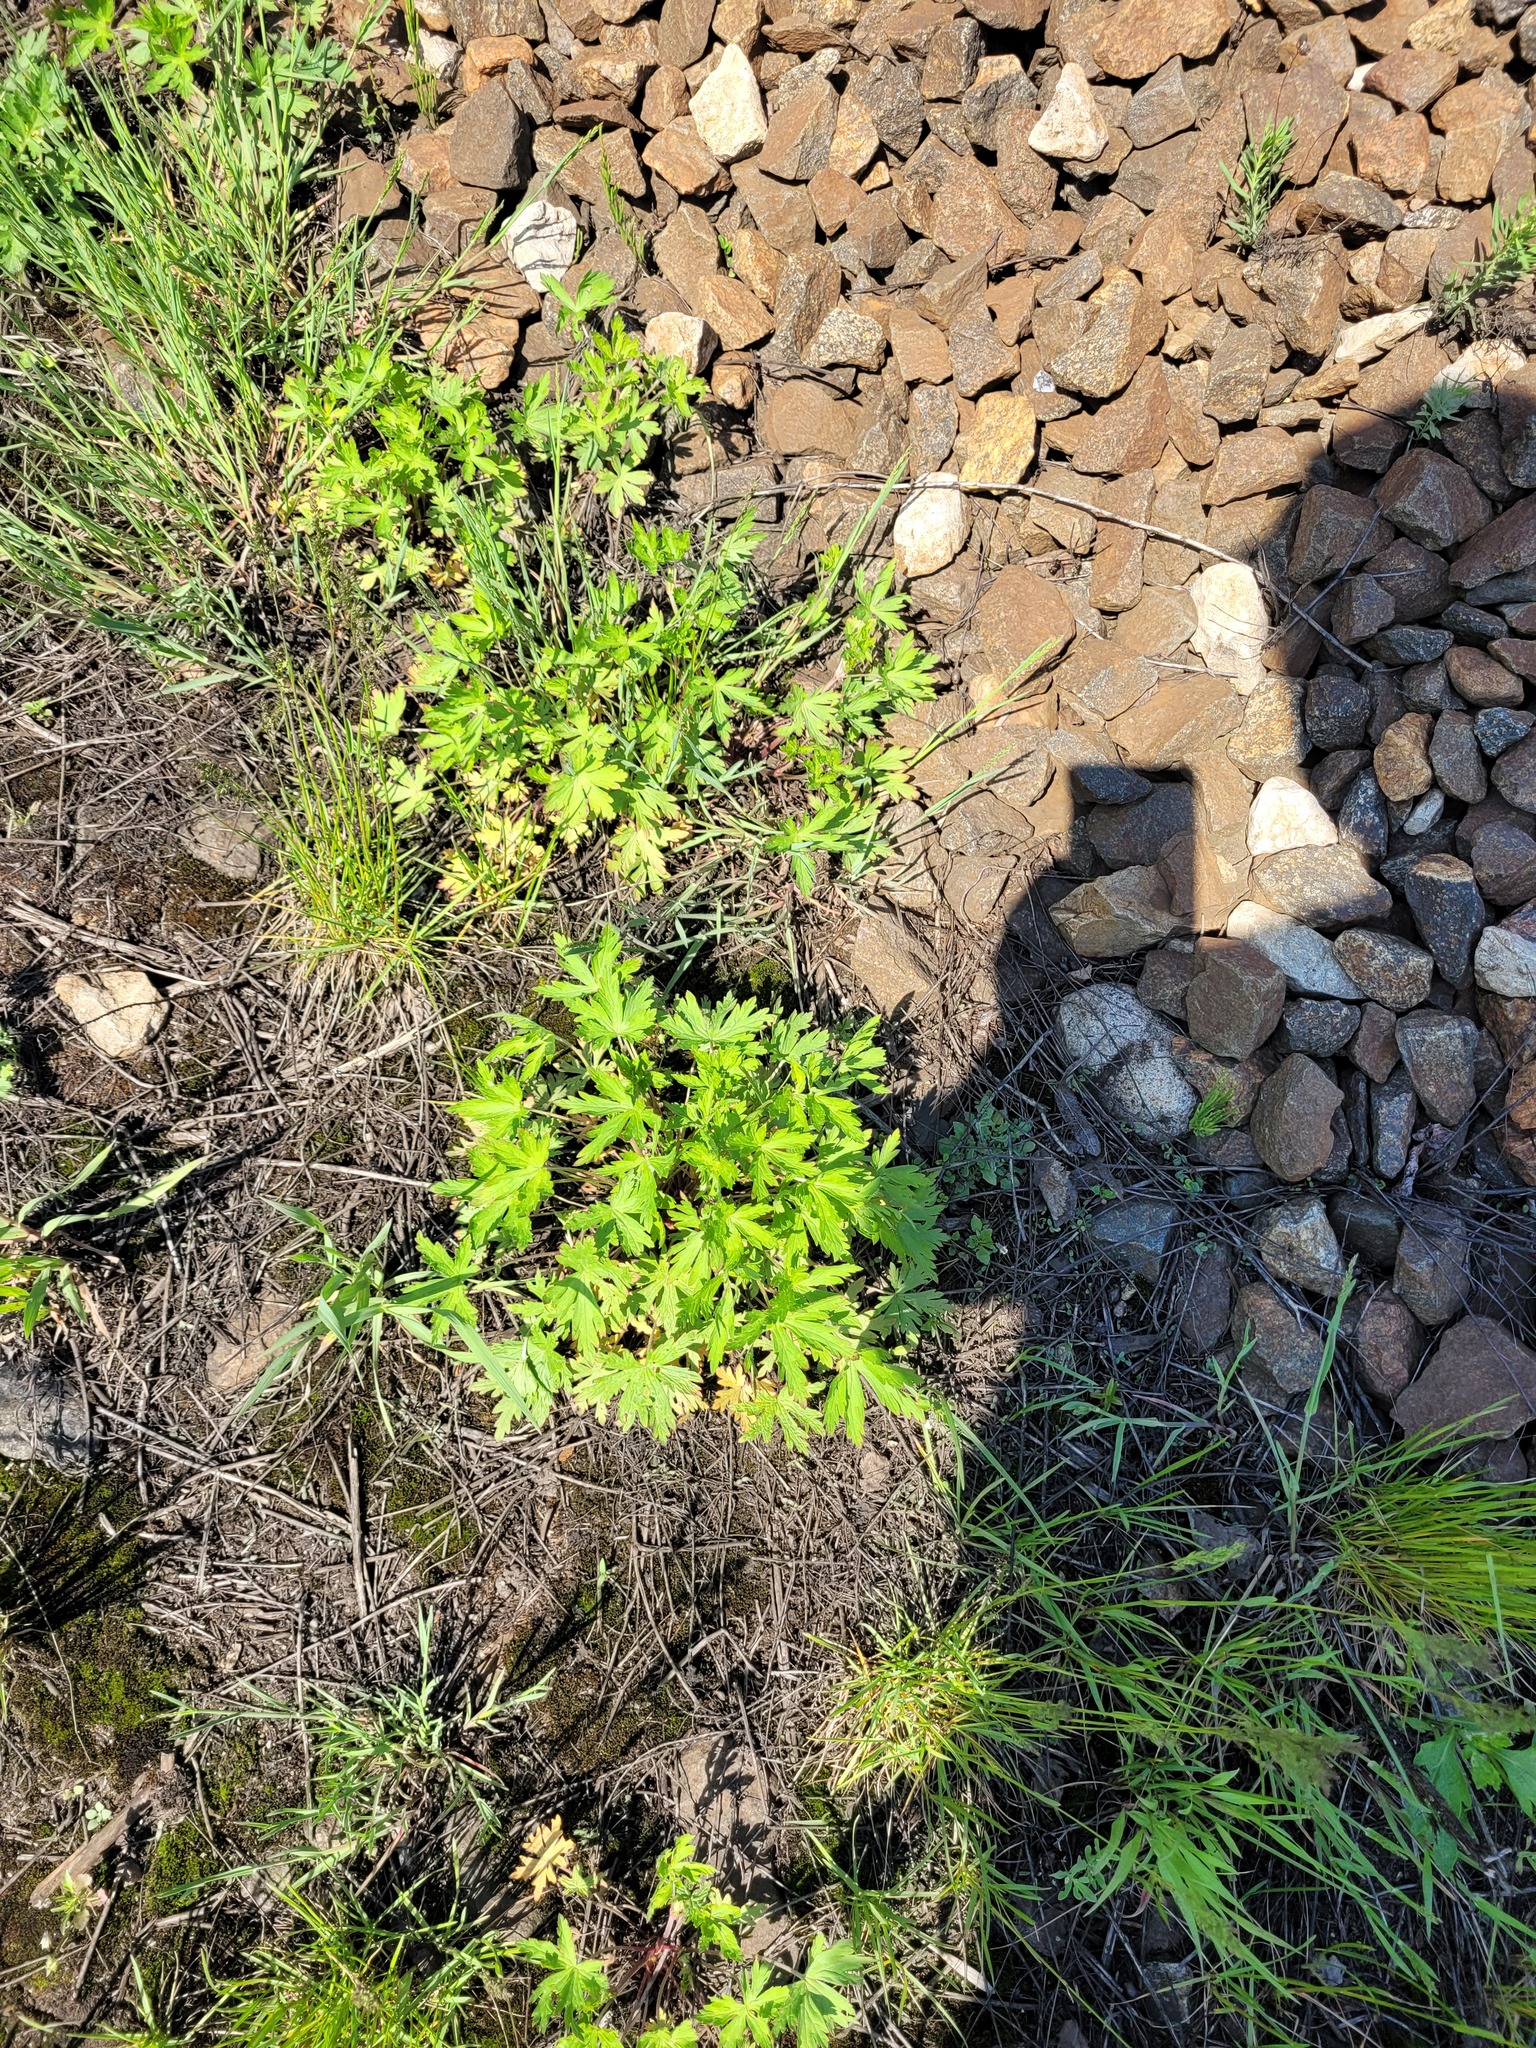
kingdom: Plantae
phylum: Tracheophyta
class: Magnoliopsida
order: Geraniales
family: Geraniaceae
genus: Geranium
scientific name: Geranium sibiricum
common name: Siberian crane's-bill
